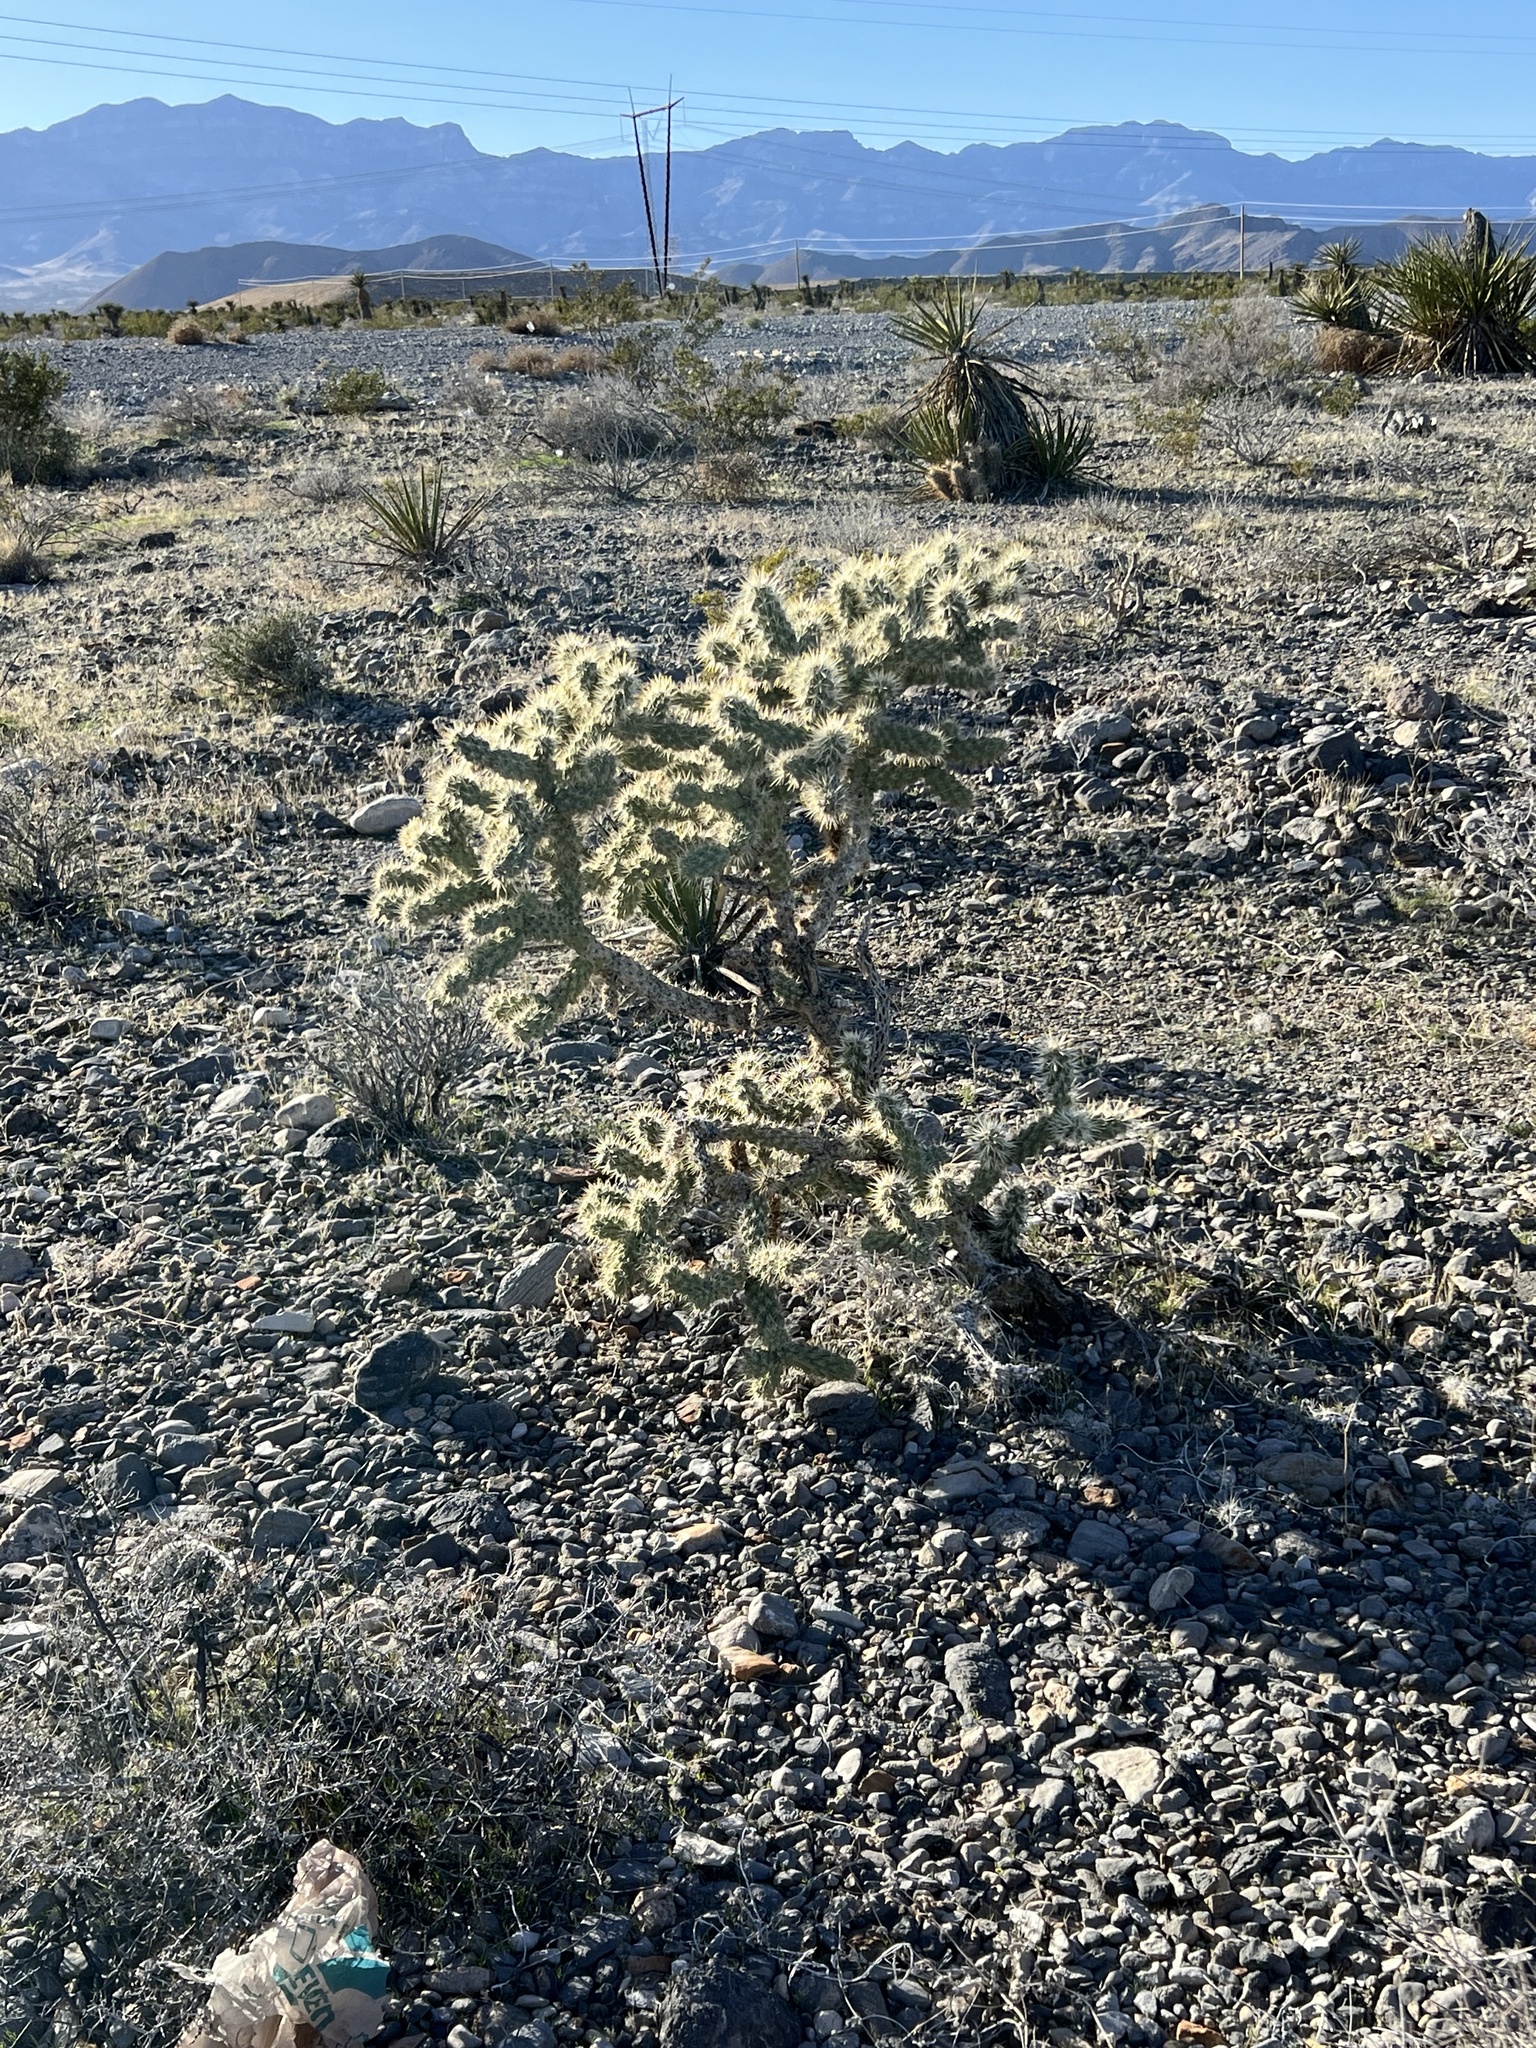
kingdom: Plantae
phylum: Tracheophyta
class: Magnoliopsida
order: Caryophyllales
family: Cactaceae
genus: Cylindropuntia
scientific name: Cylindropuntia echinocarpa
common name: Ground cholla
